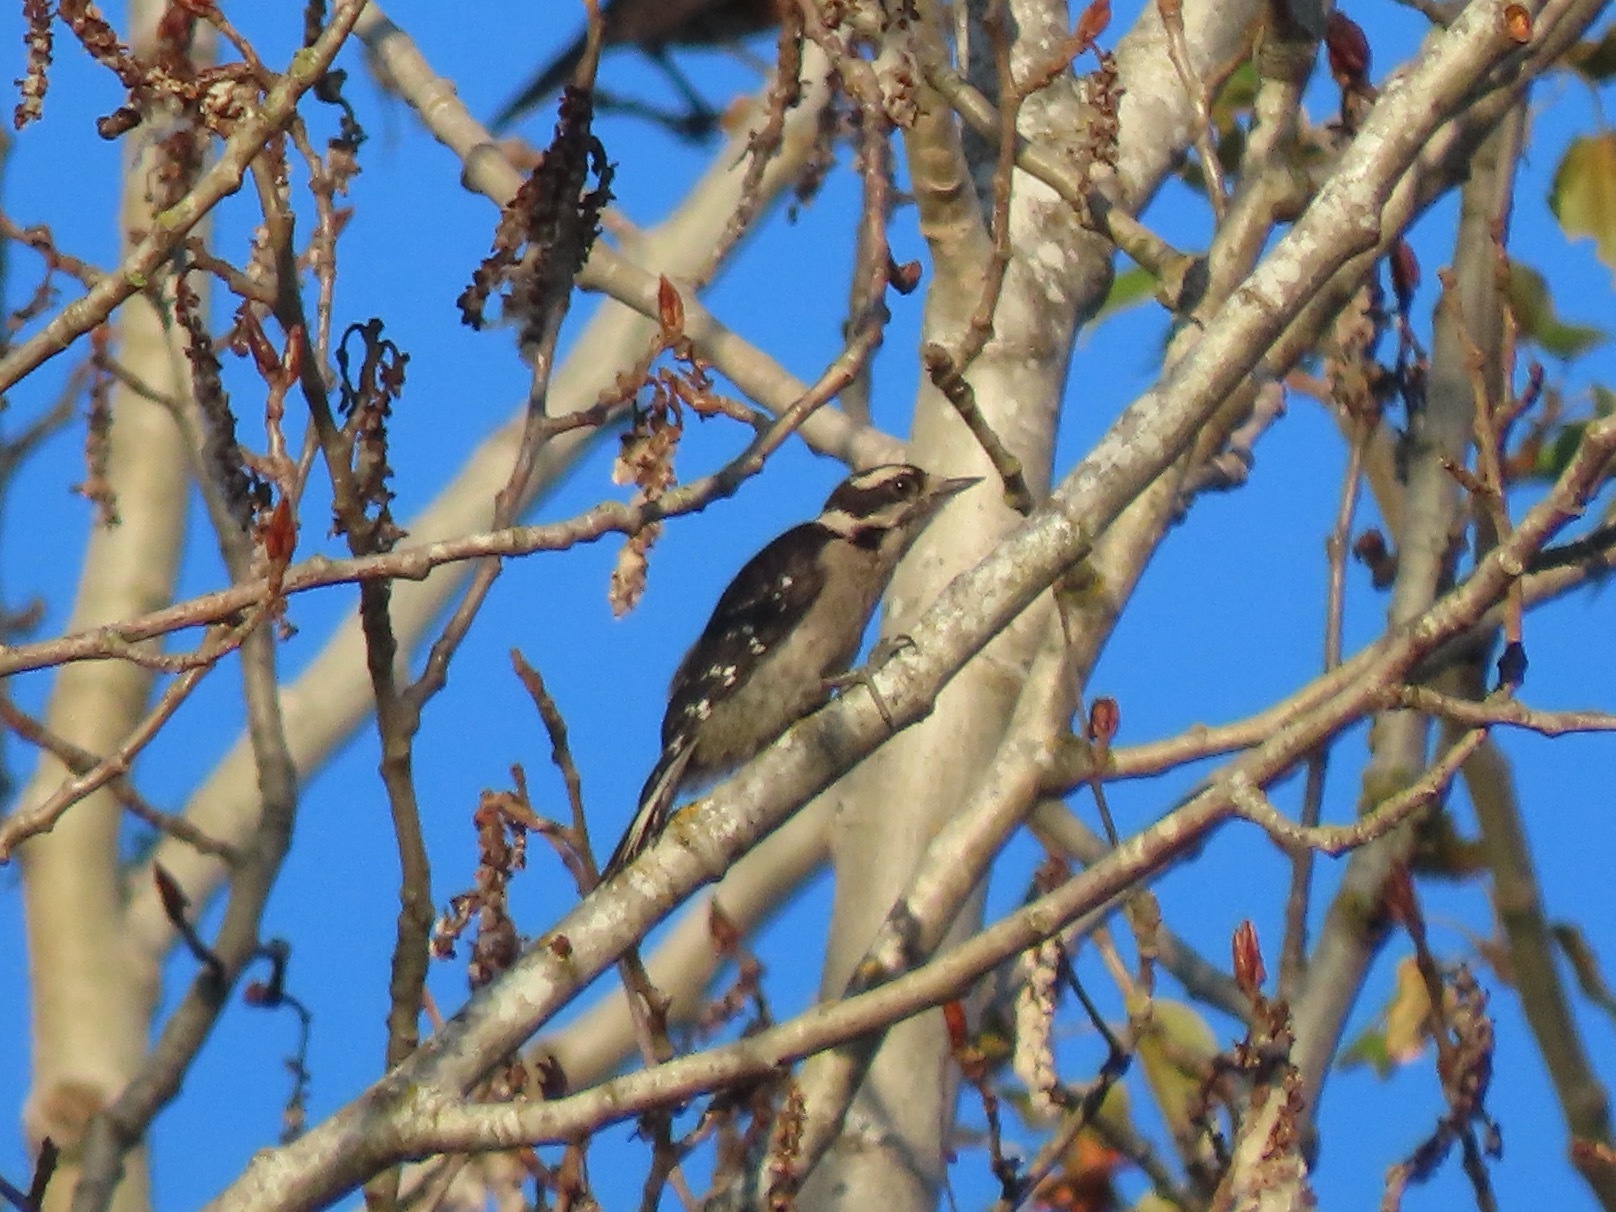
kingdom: Animalia
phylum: Chordata
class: Aves
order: Piciformes
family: Picidae
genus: Dryobates
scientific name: Dryobates pubescens
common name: Downy woodpecker
